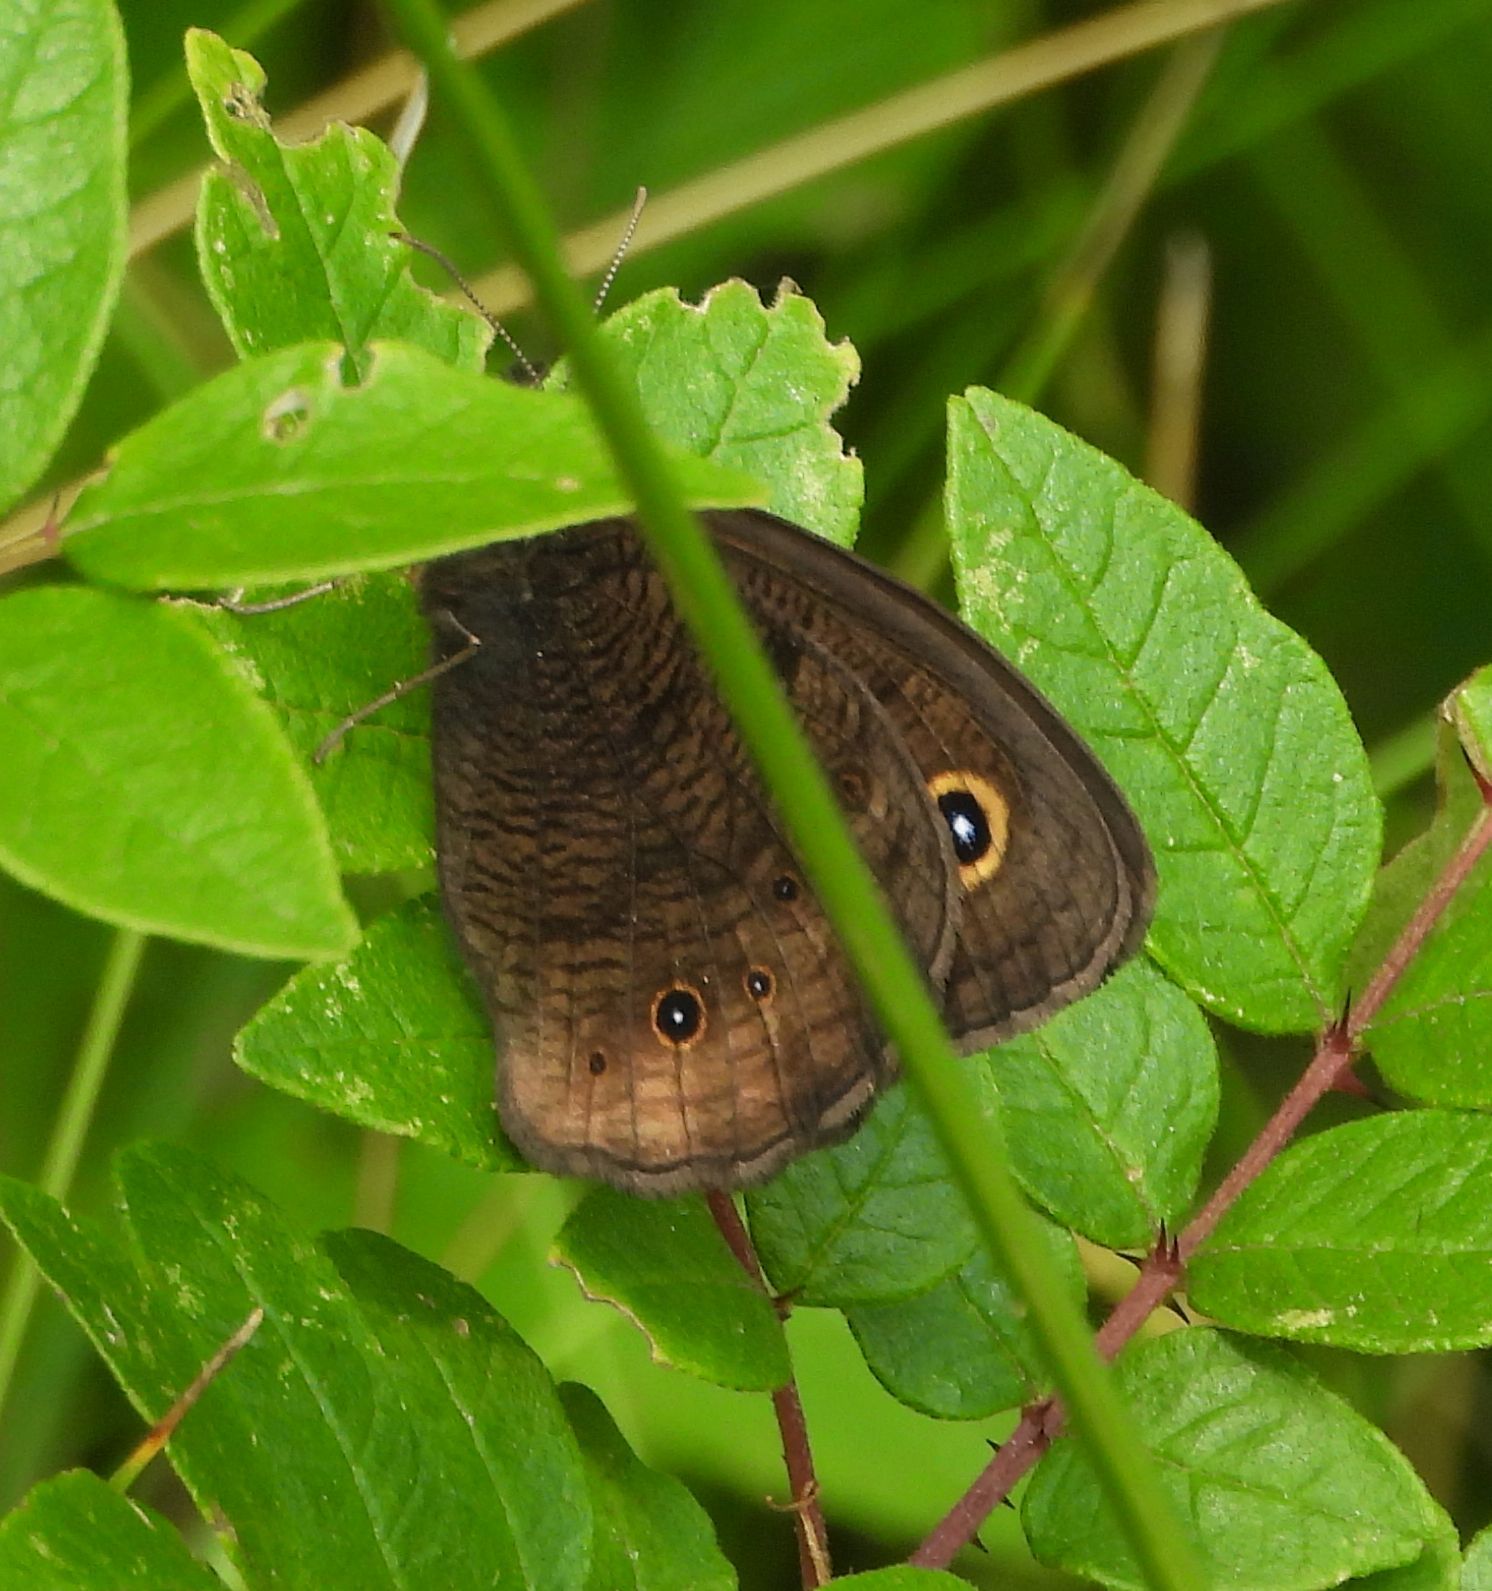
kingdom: Animalia
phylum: Arthropoda
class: Insecta
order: Lepidoptera
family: Nymphalidae
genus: Cercyonis
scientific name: Cercyonis pegala
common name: Common wood-nymph
